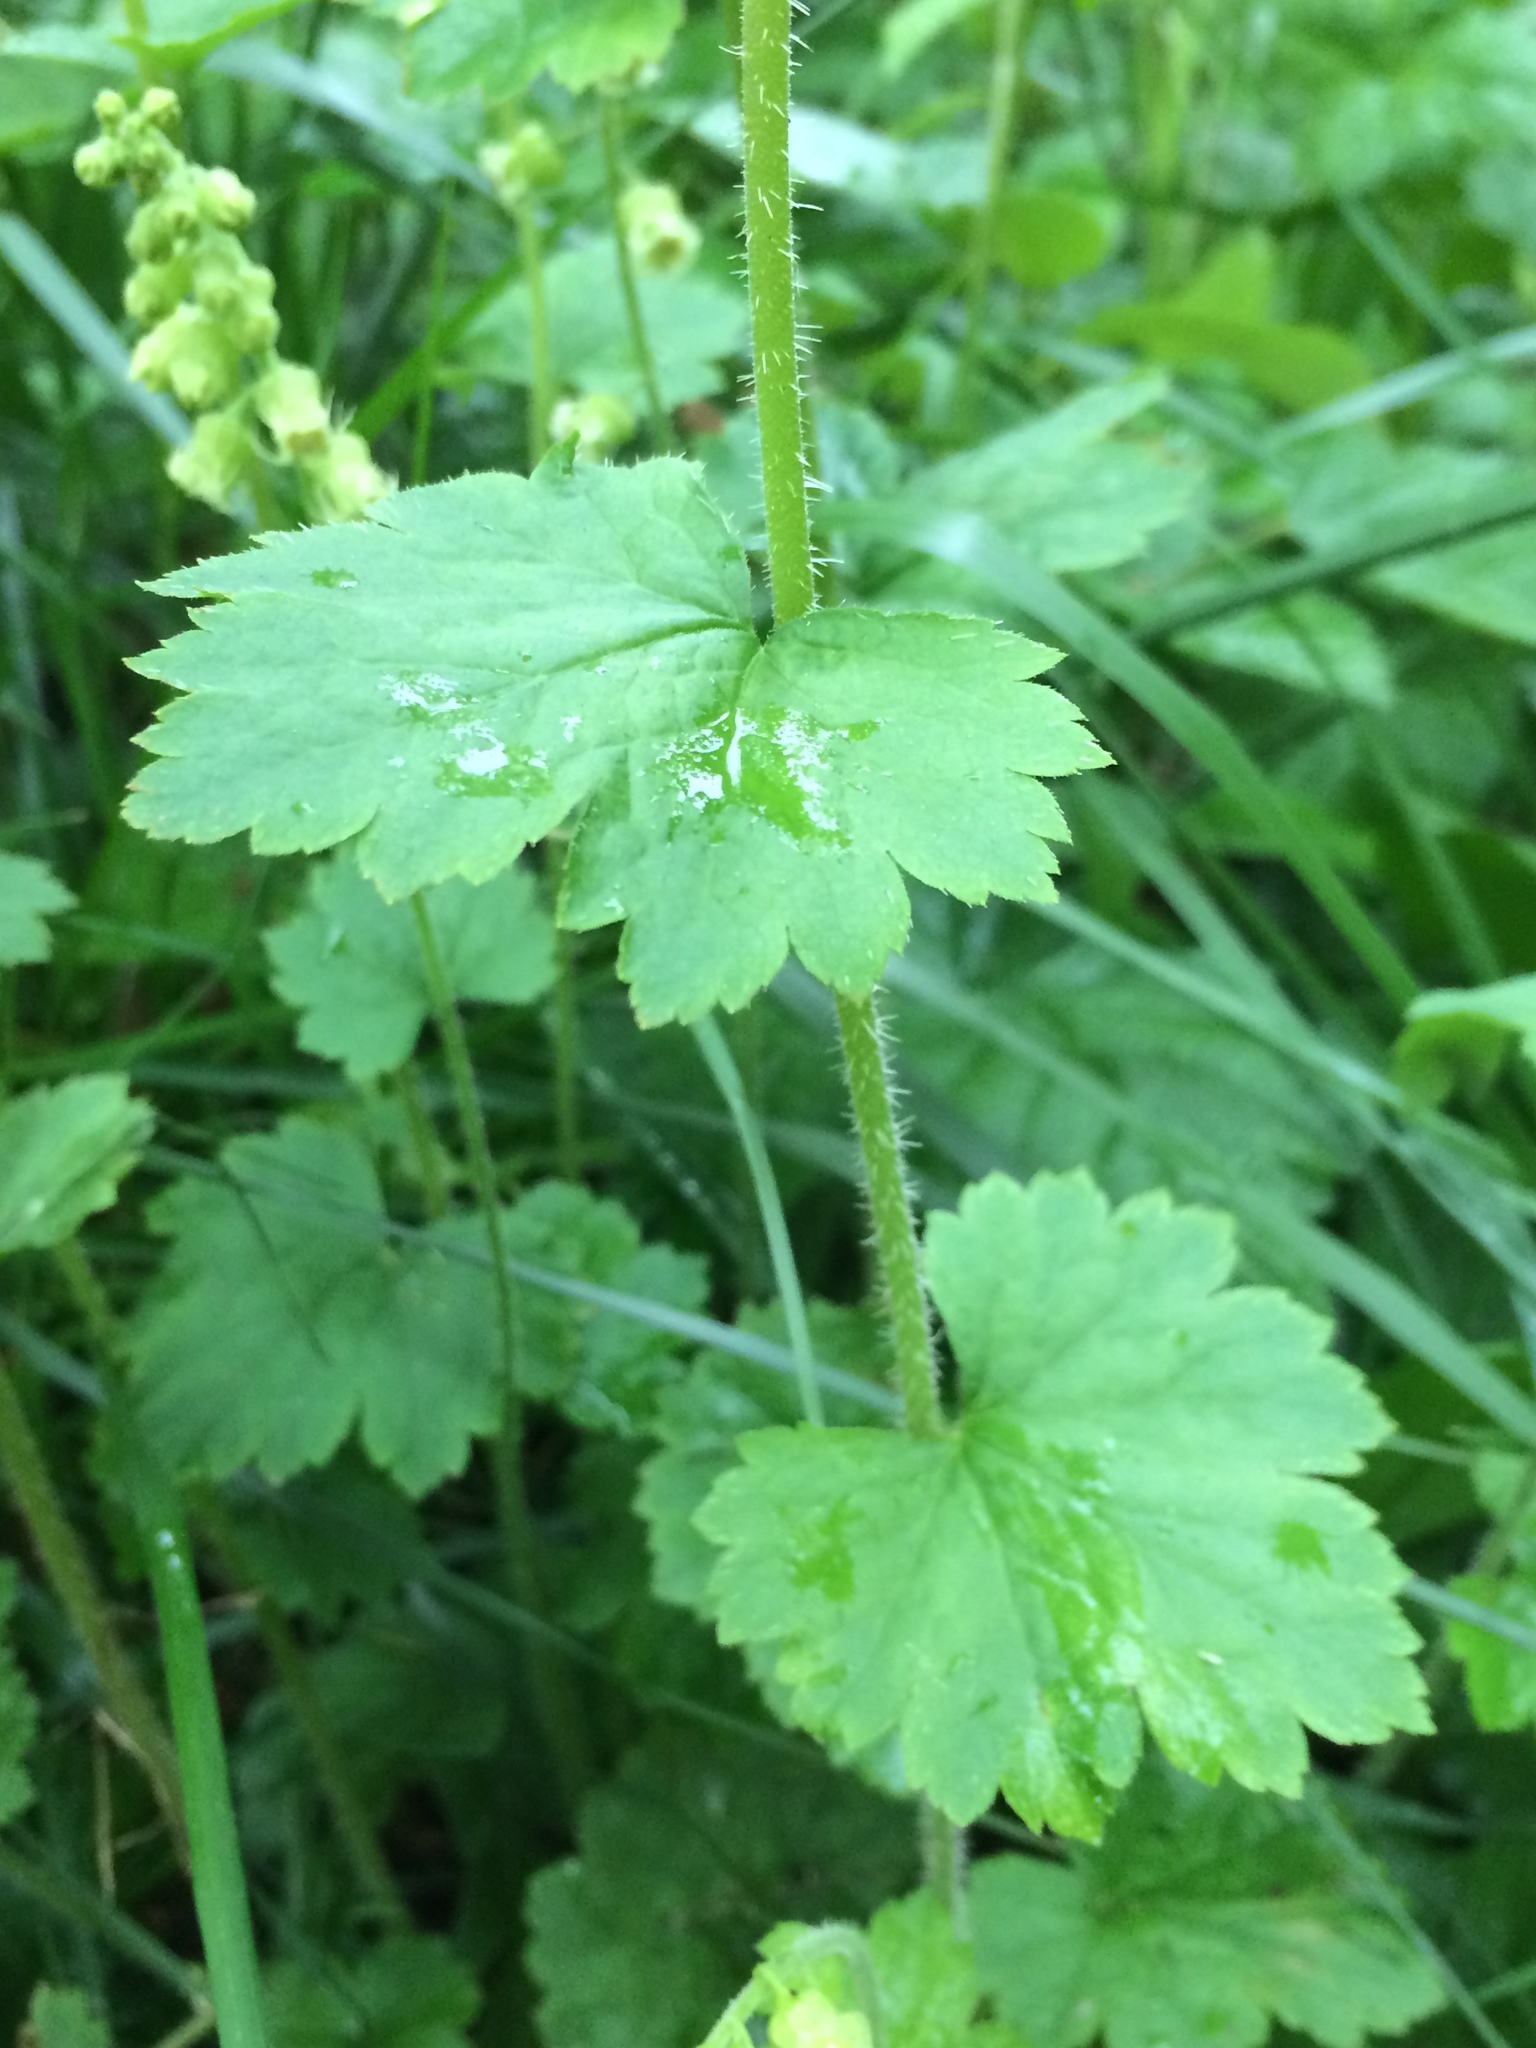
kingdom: Plantae
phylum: Tracheophyta
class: Magnoliopsida
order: Saxifragales
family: Saxifragaceae
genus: Tellima
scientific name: Tellima grandiflora
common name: Fringecups
